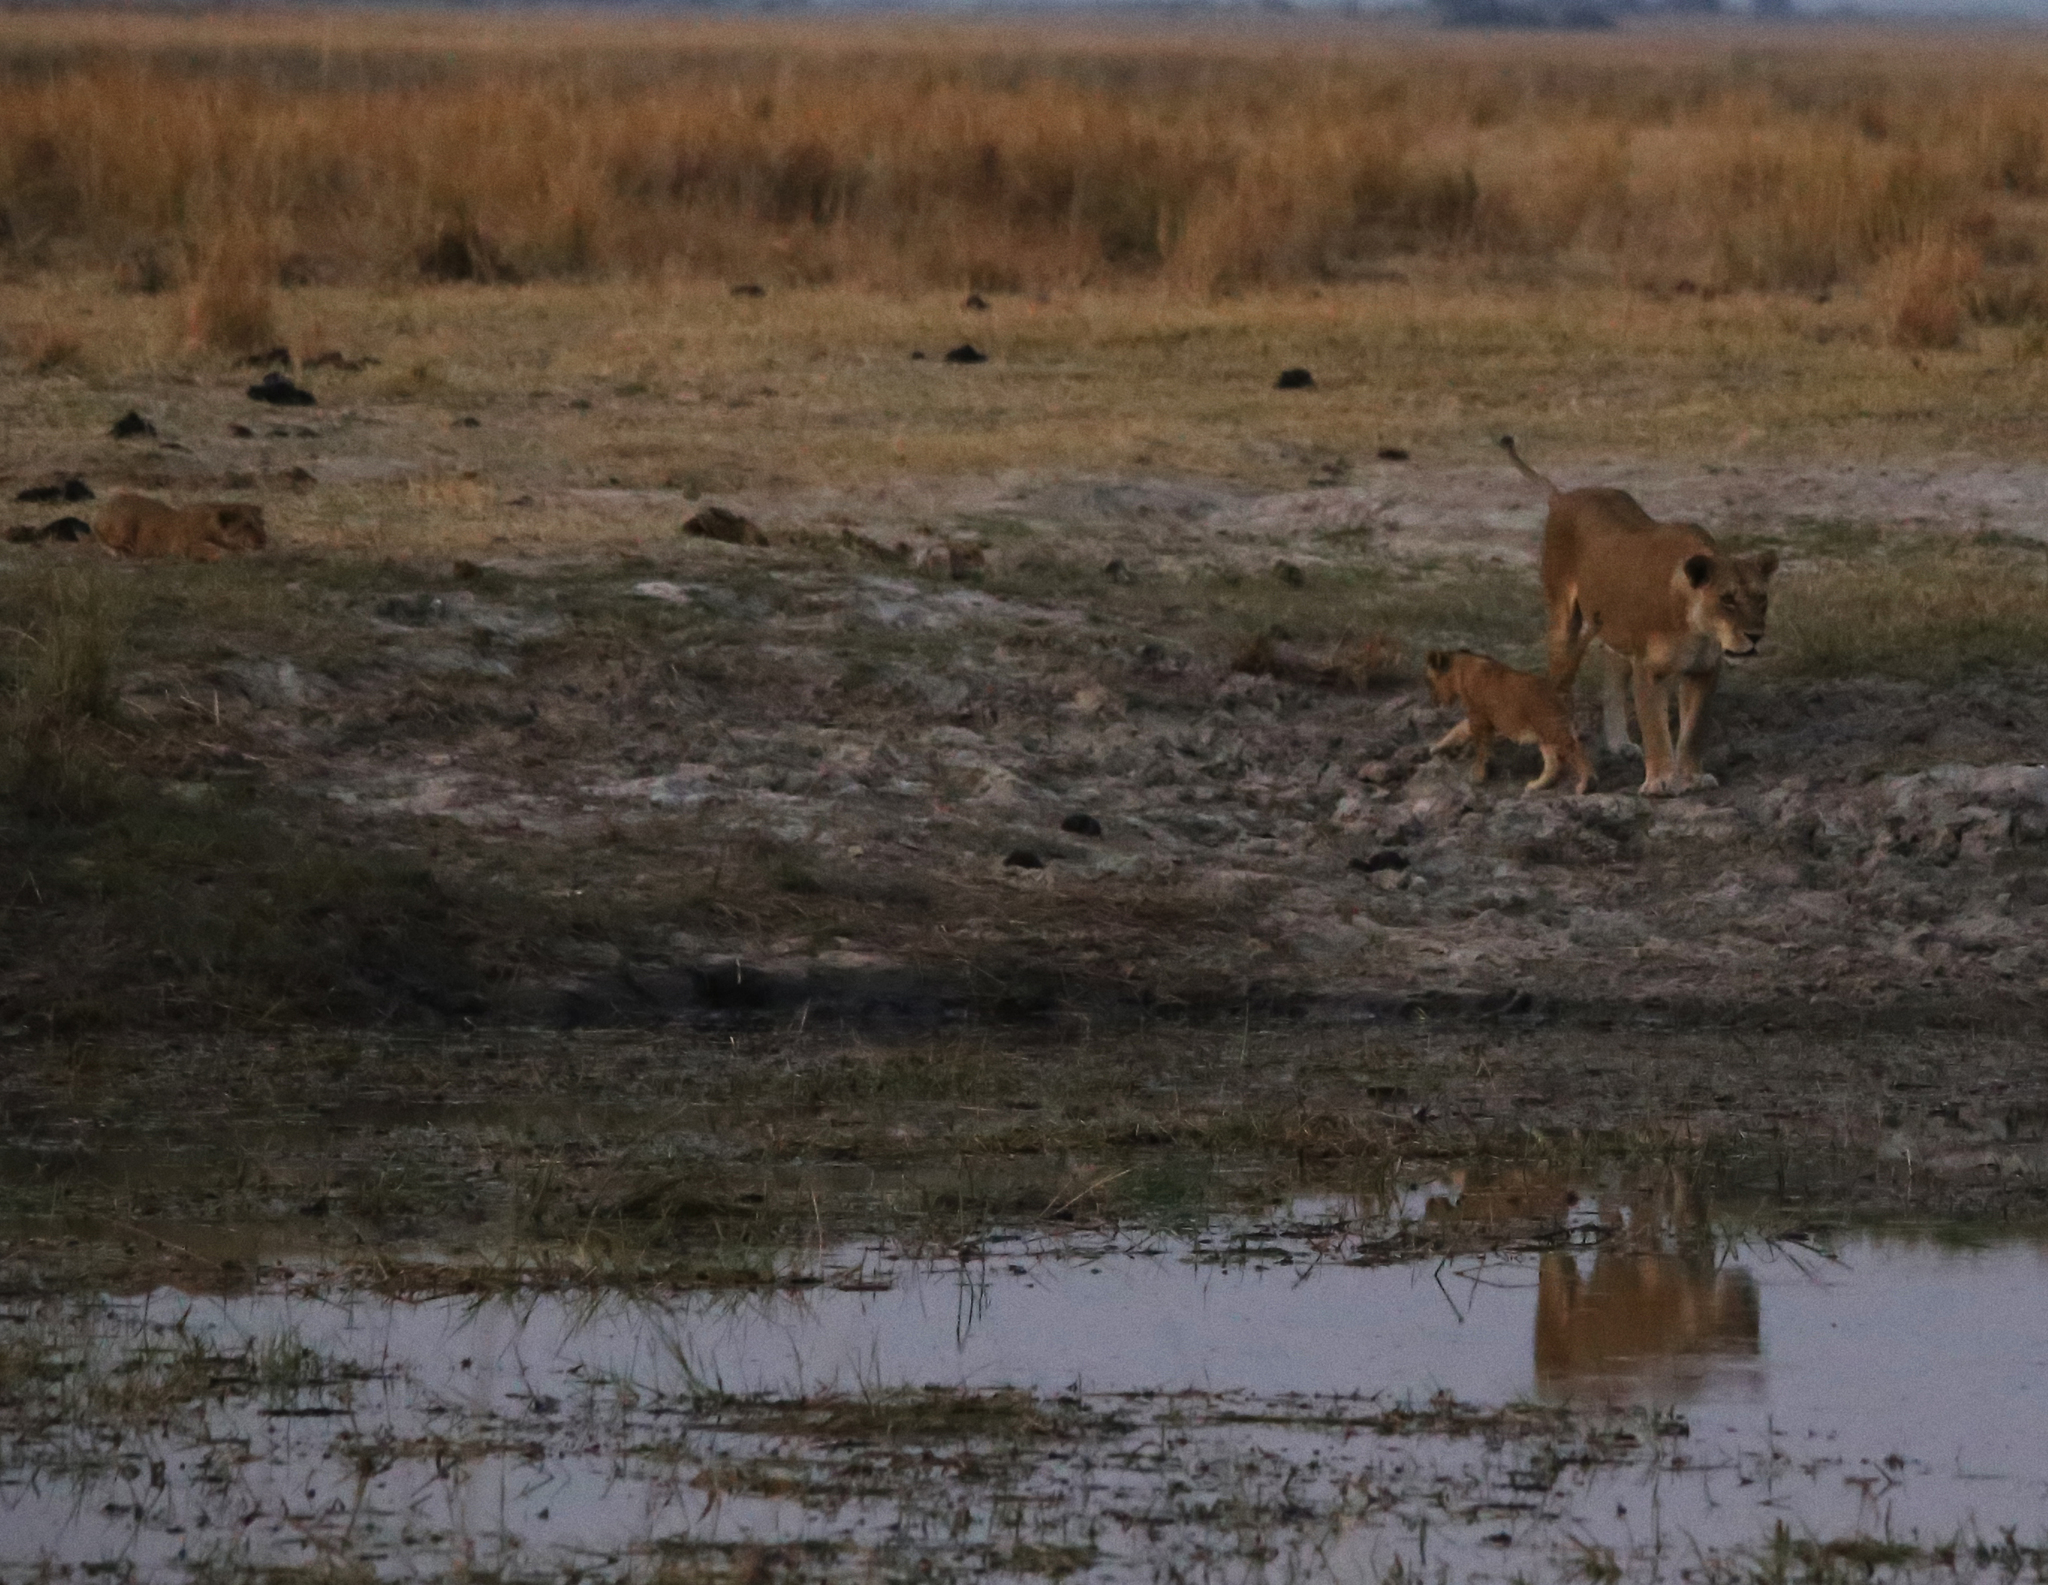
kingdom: Animalia
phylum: Chordata
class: Mammalia
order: Carnivora
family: Felidae
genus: Panthera
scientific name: Panthera leo
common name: Lion
